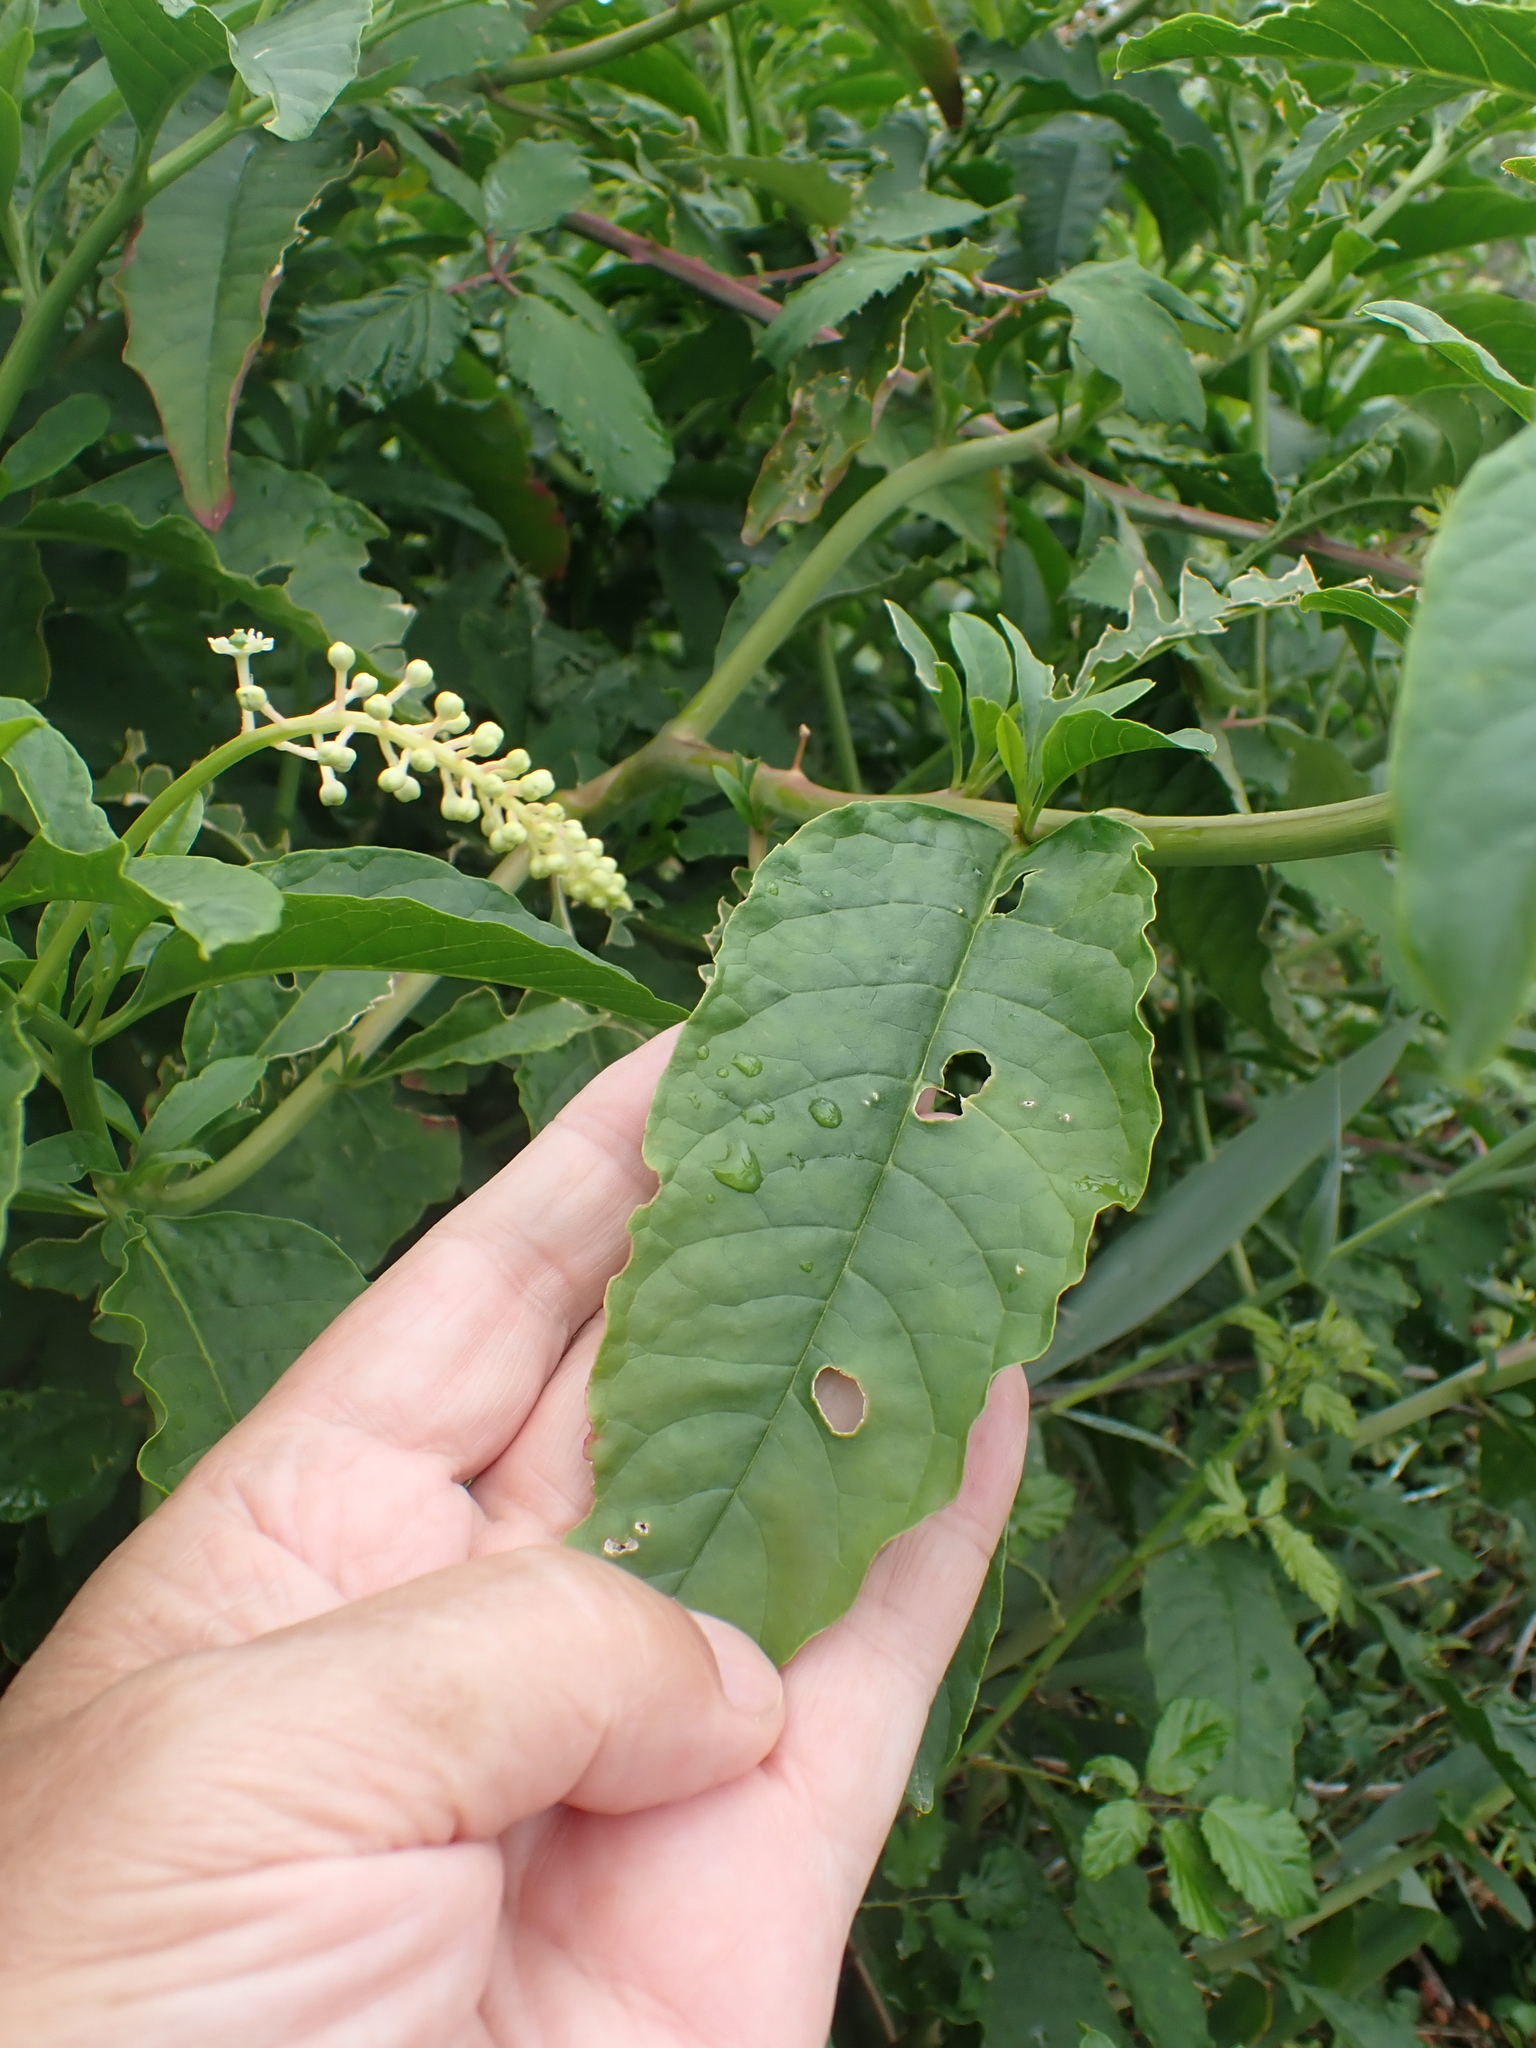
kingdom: Plantae
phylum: Tracheophyta
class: Magnoliopsida
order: Caryophyllales
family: Phytolaccaceae
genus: Phytolacca
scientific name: Phytolacca americana
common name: American pokeweed
